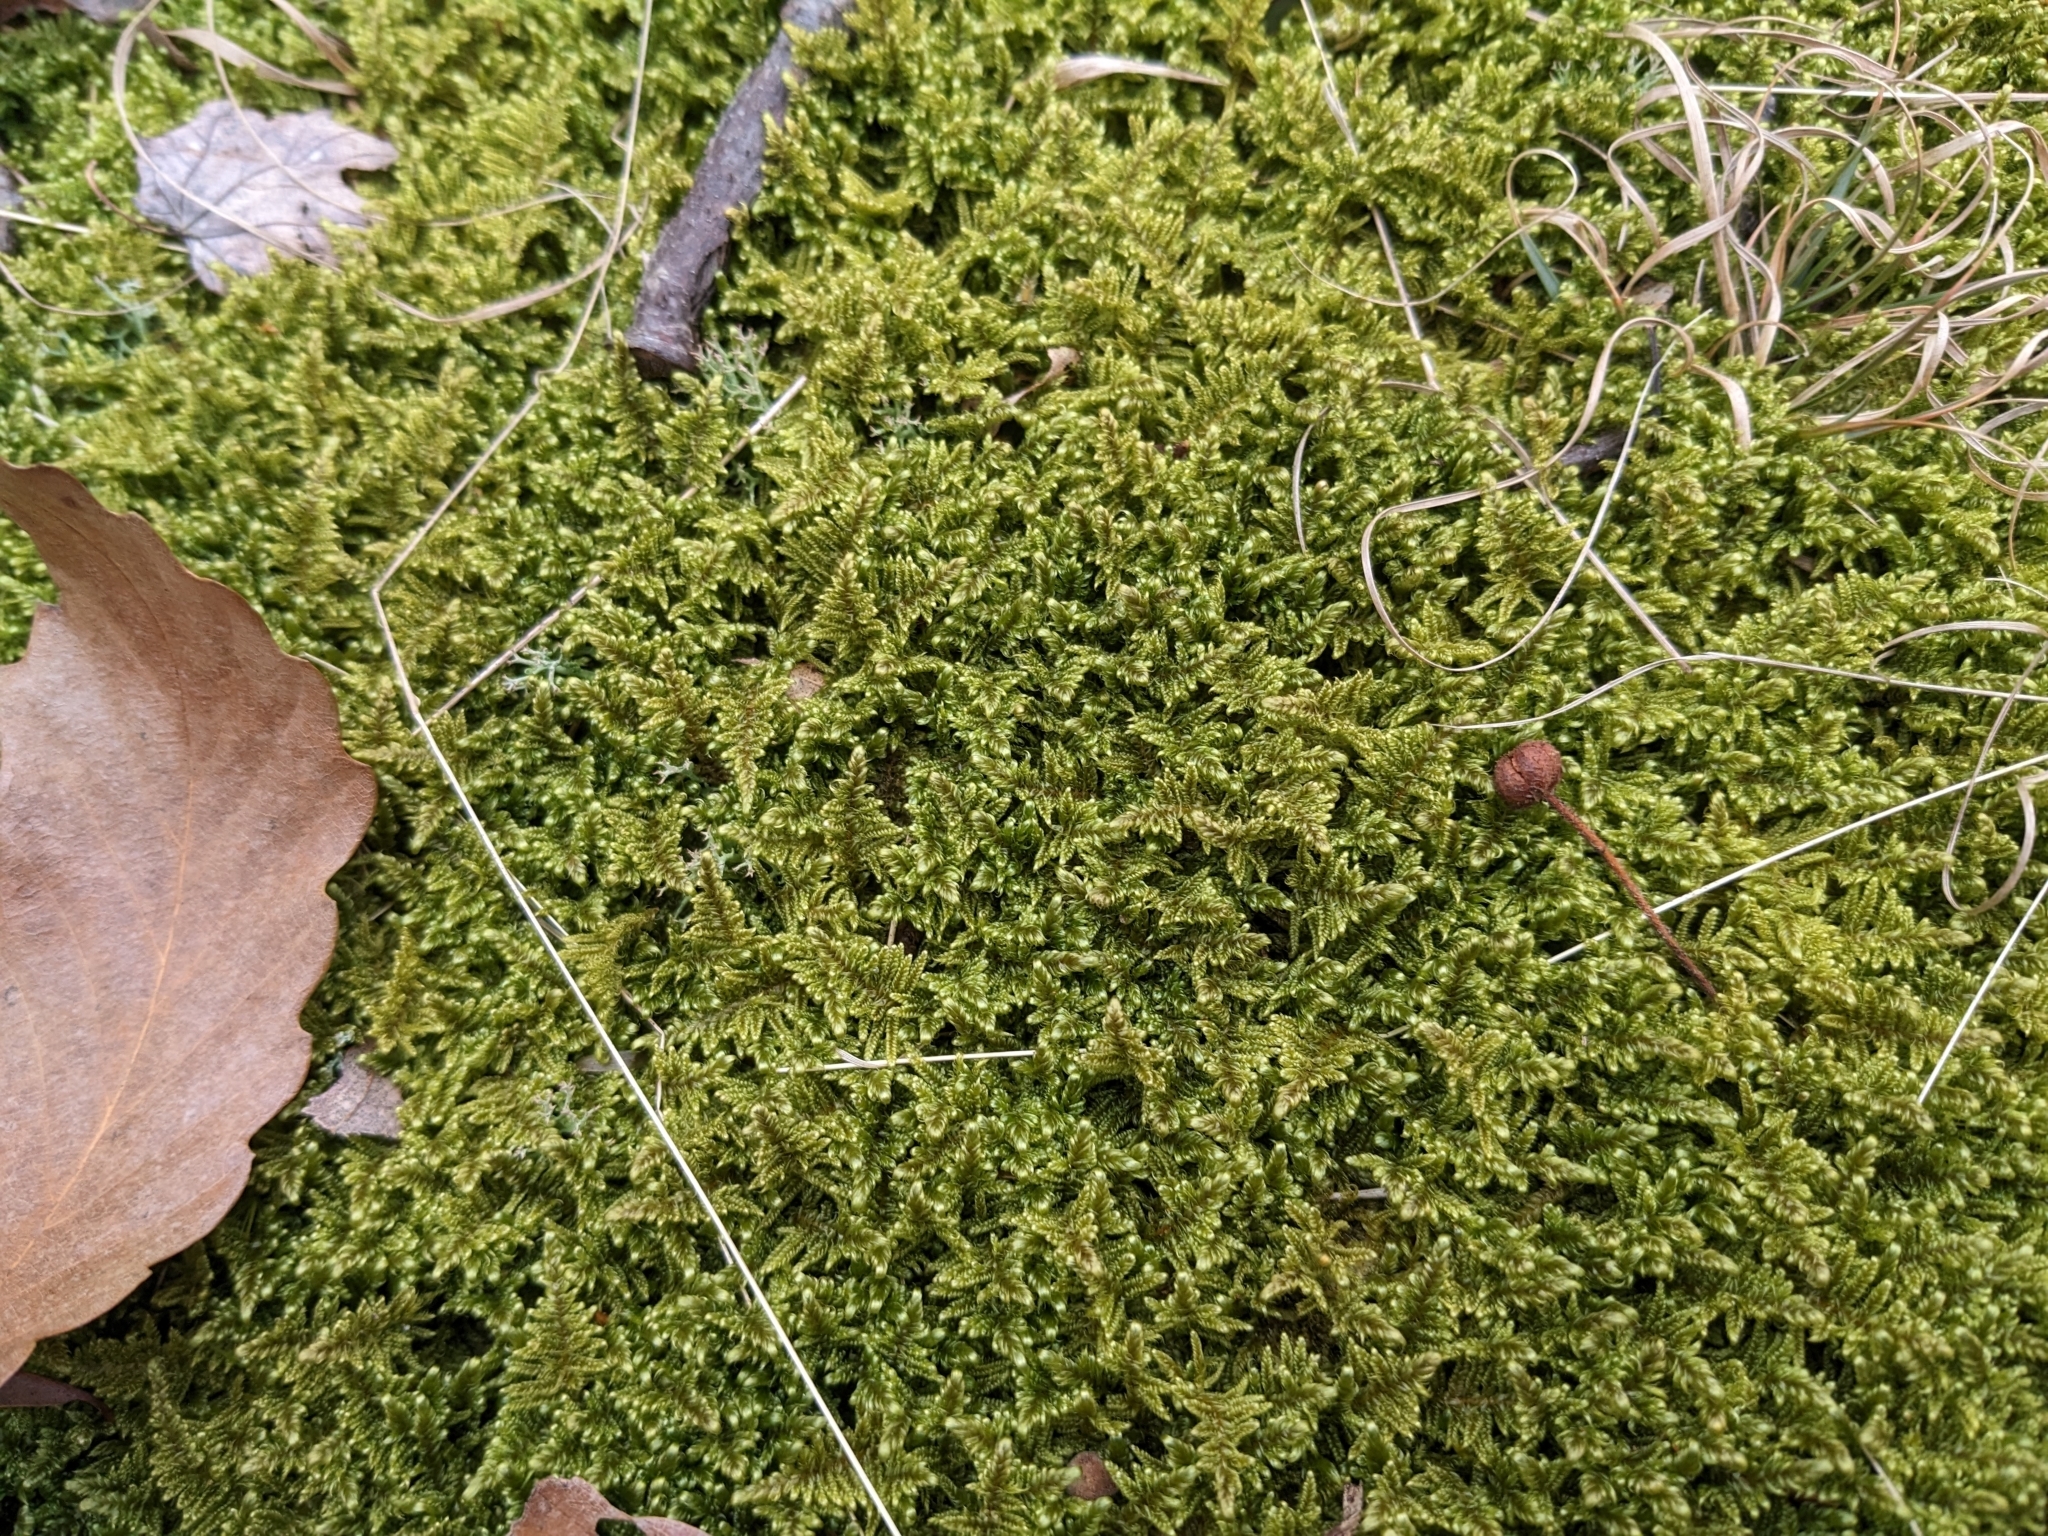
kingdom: Plantae
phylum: Bryophyta
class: Bryopsida
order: Hypnales
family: Callicladiaceae
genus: Callicladium
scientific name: Callicladium imponens
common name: Brocade moss
